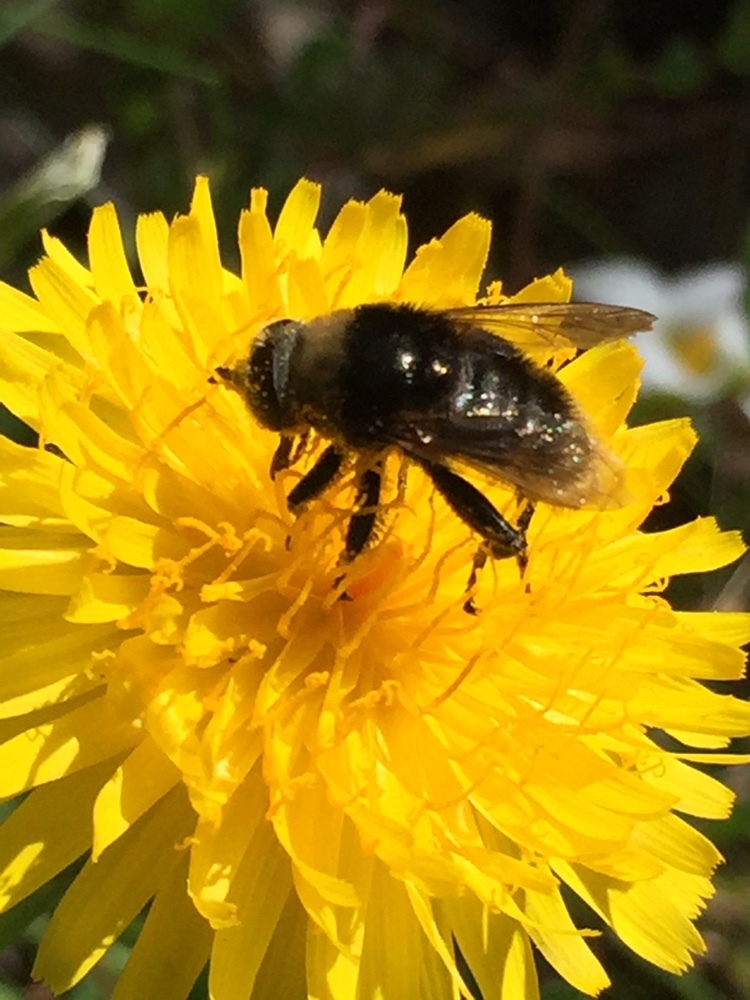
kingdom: Animalia
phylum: Arthropoda
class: Insecta
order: Diptera
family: Syrphidae
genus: Merodon
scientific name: Merodon equestris
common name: Greater bulb-fly
